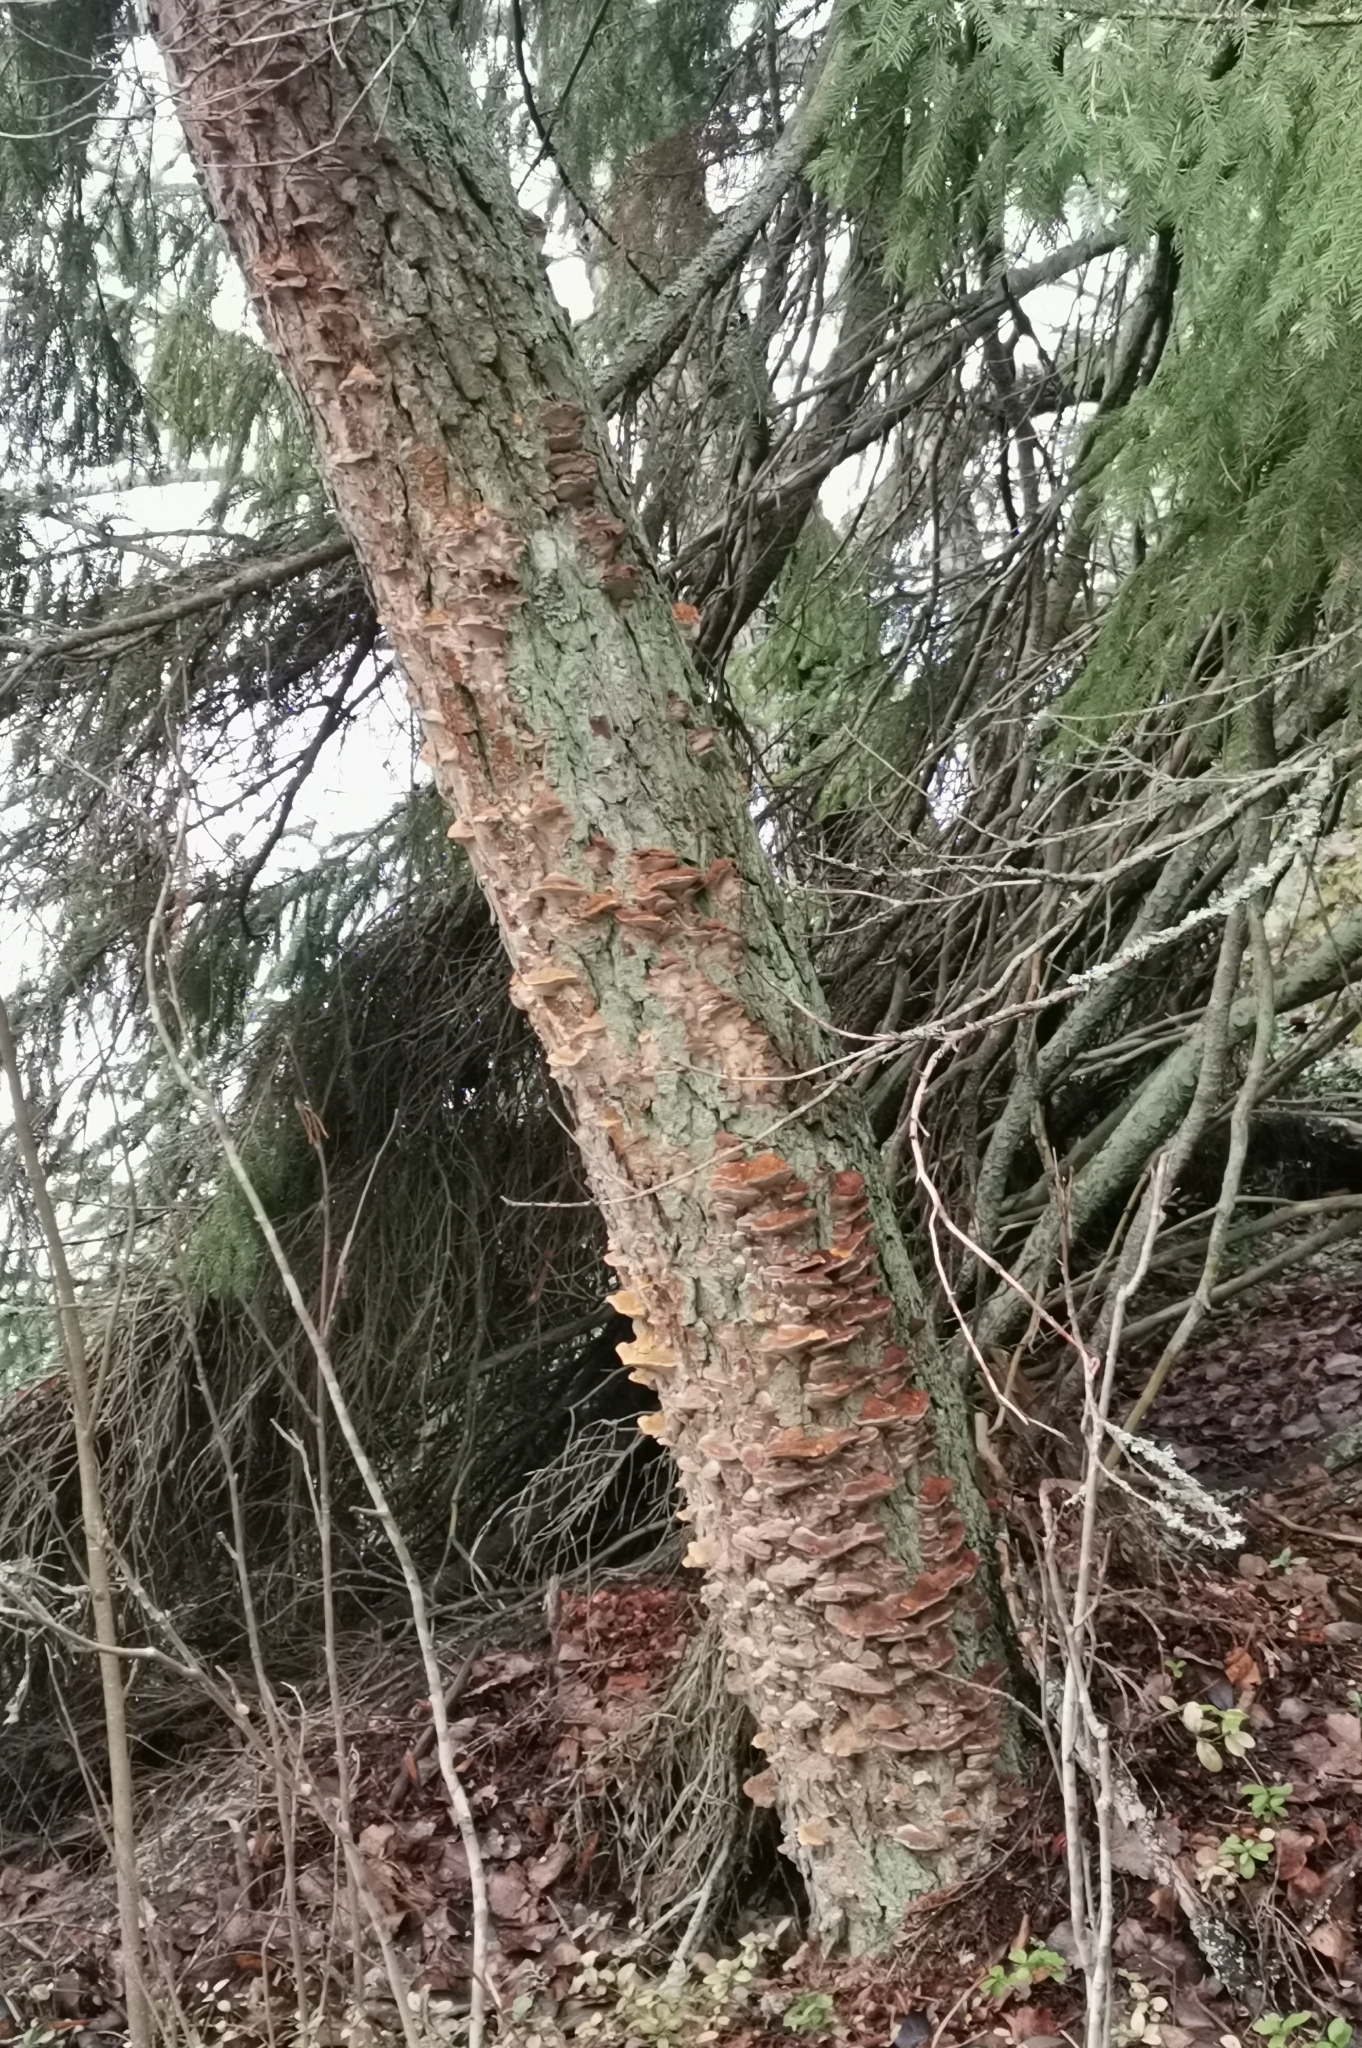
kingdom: Fungi
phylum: Basidiomycota
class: Agaricomycetes
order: Hymenochaetales
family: Hymenochaetaceae
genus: Xanthoporia
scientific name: Xanthoporia radiata
